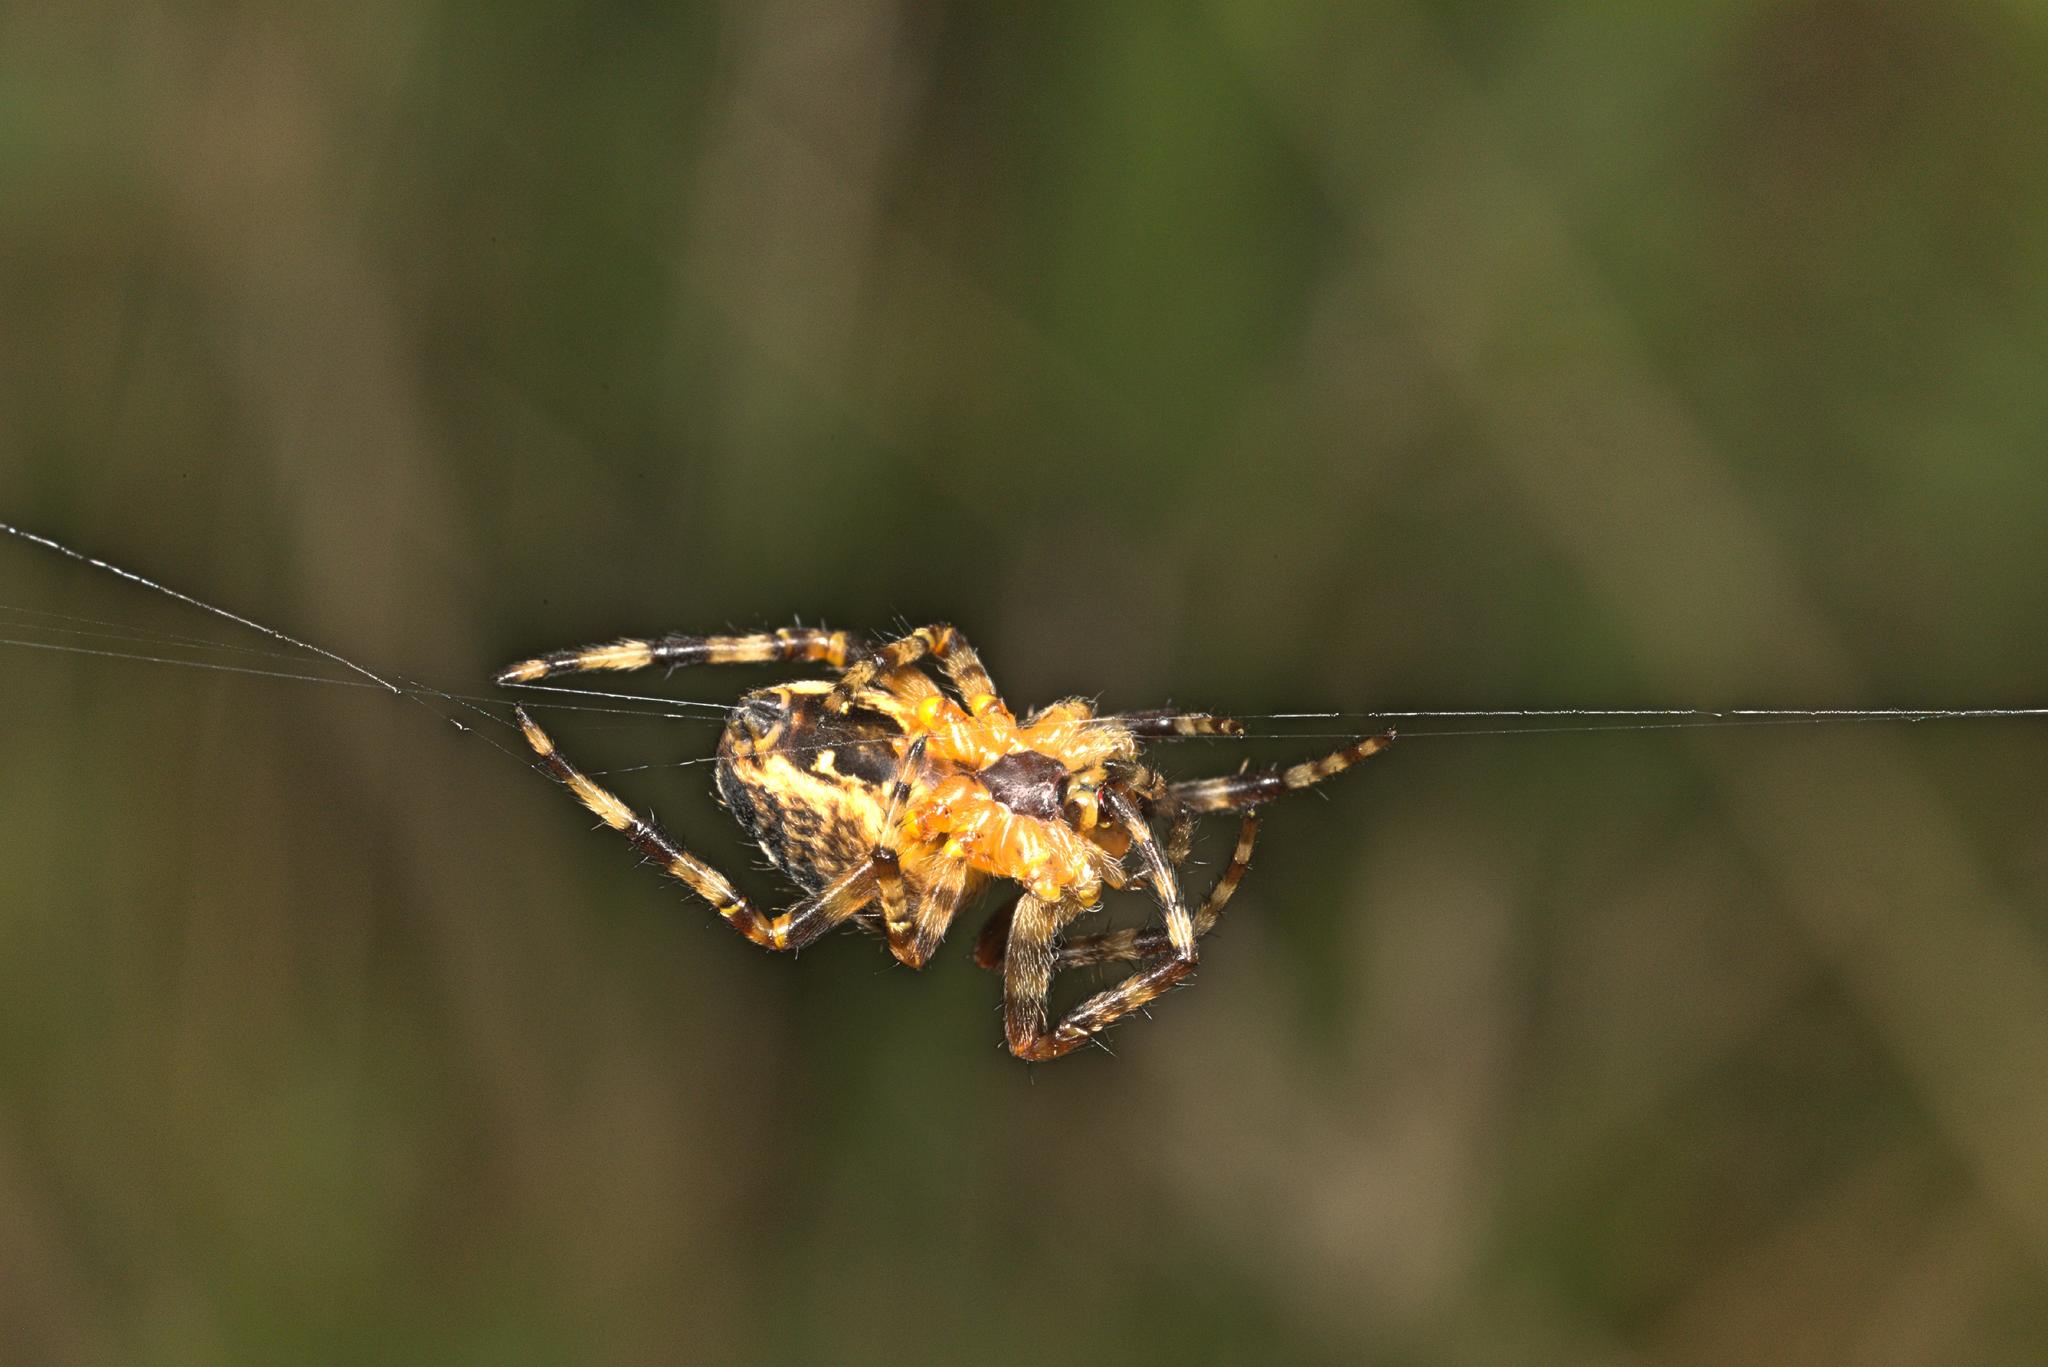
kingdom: Animalia
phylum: Arthropoda
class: Arachnida
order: Araneae
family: Araneidae
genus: Araneus
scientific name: Araneus diadematus
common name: Cross orbweaver
